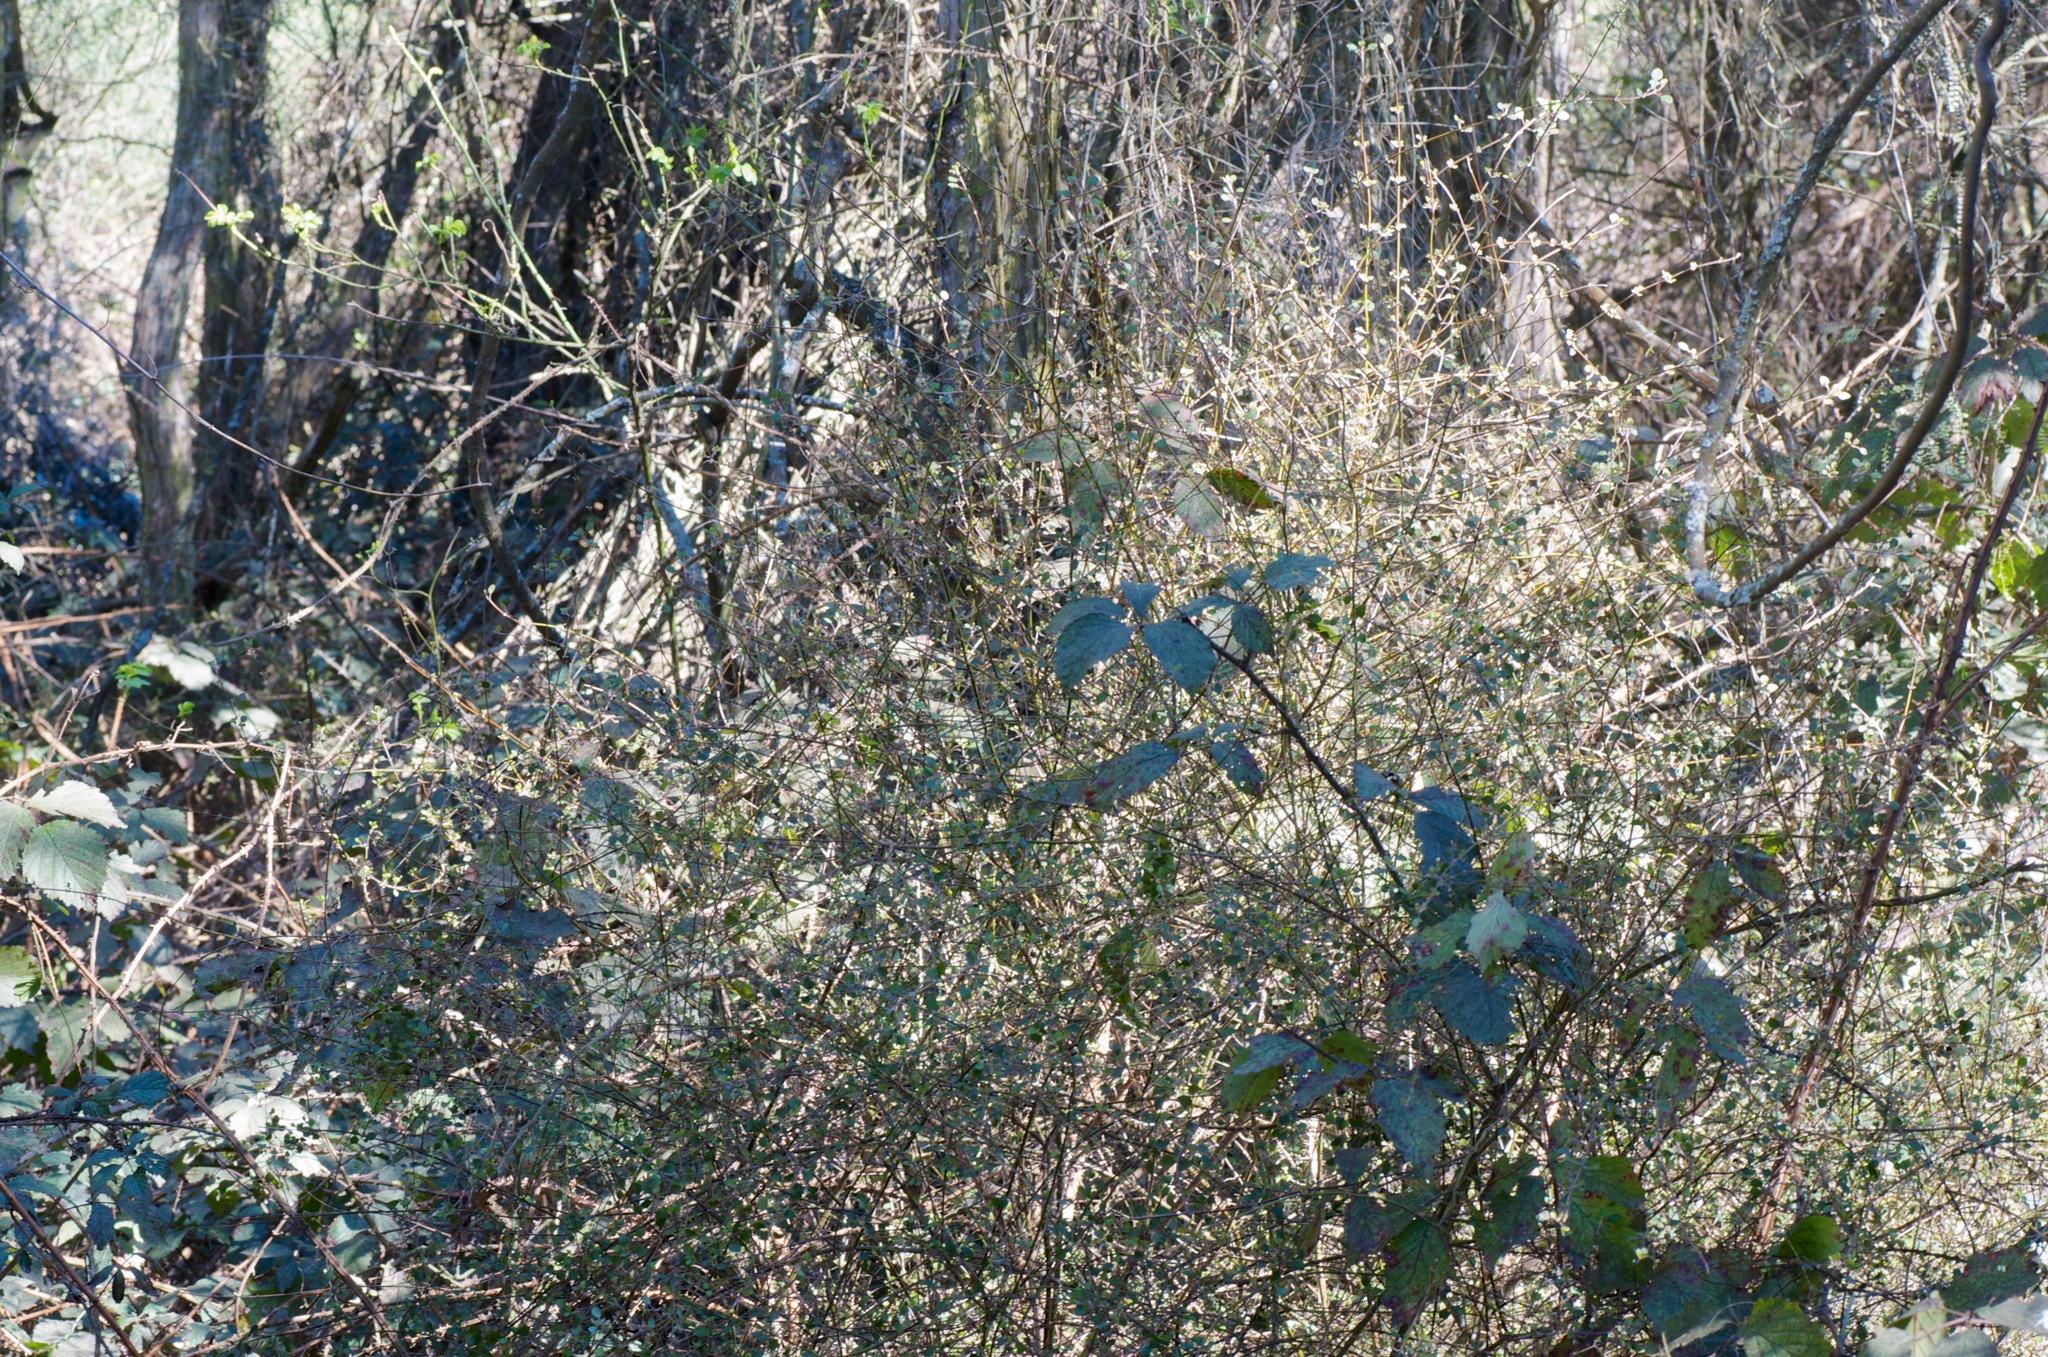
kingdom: Plantae
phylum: Tracheophyta
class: Magnoliopsida
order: Lamiales
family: Lamiaceae
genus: Teucrium
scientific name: Teucrium parvifolium
